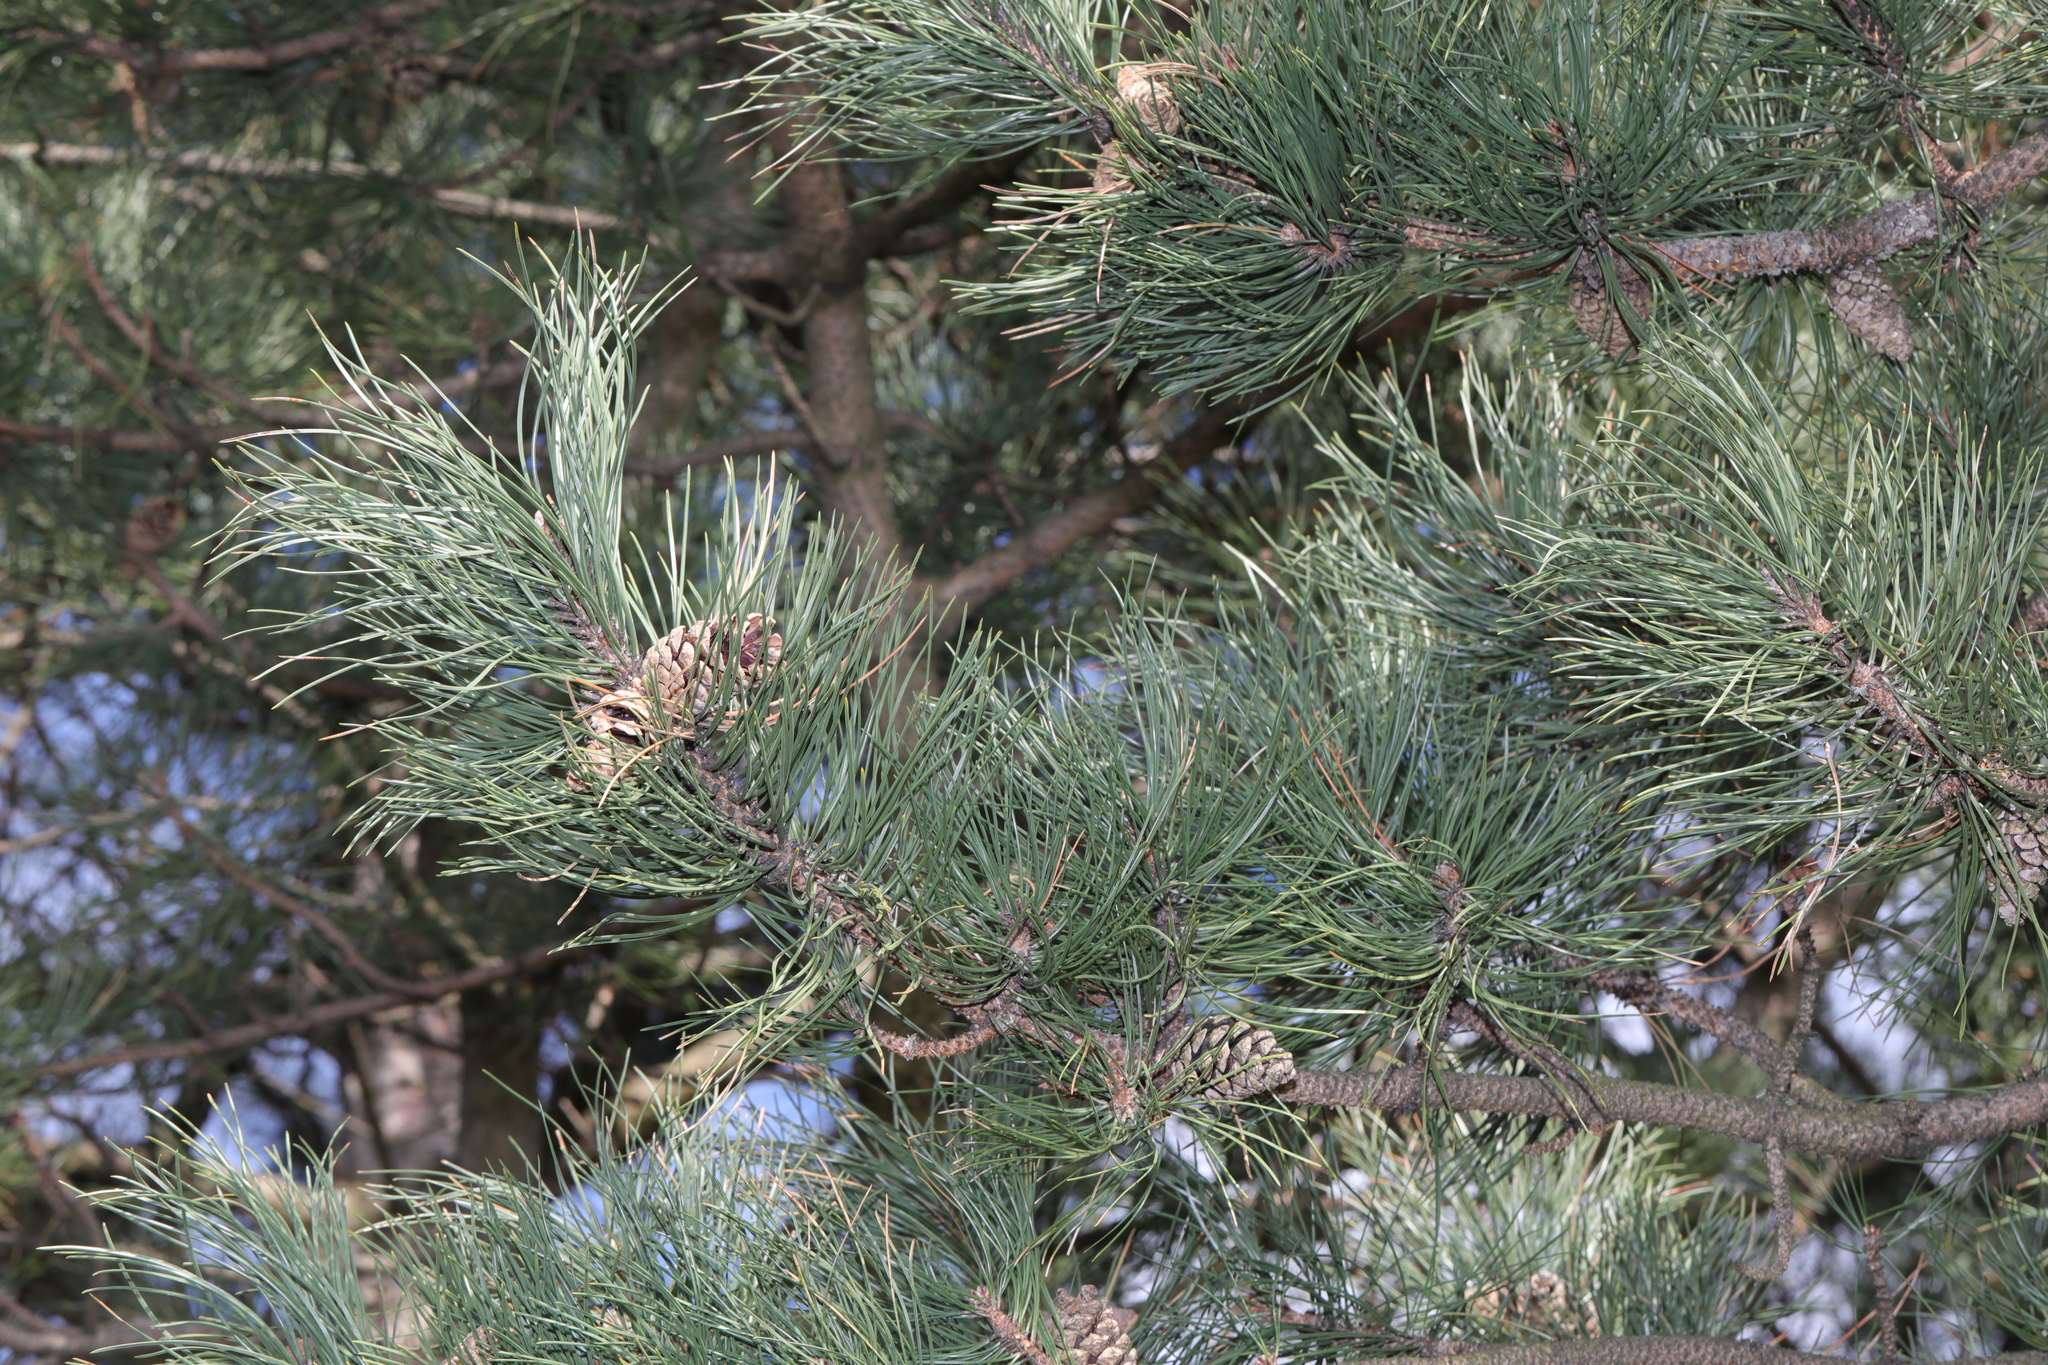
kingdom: Plantae
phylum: Tracheophyta
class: Pinopsida
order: Pinales
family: Pinaceae
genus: Pinus
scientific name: Pinus nigra
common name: Austrian pine
